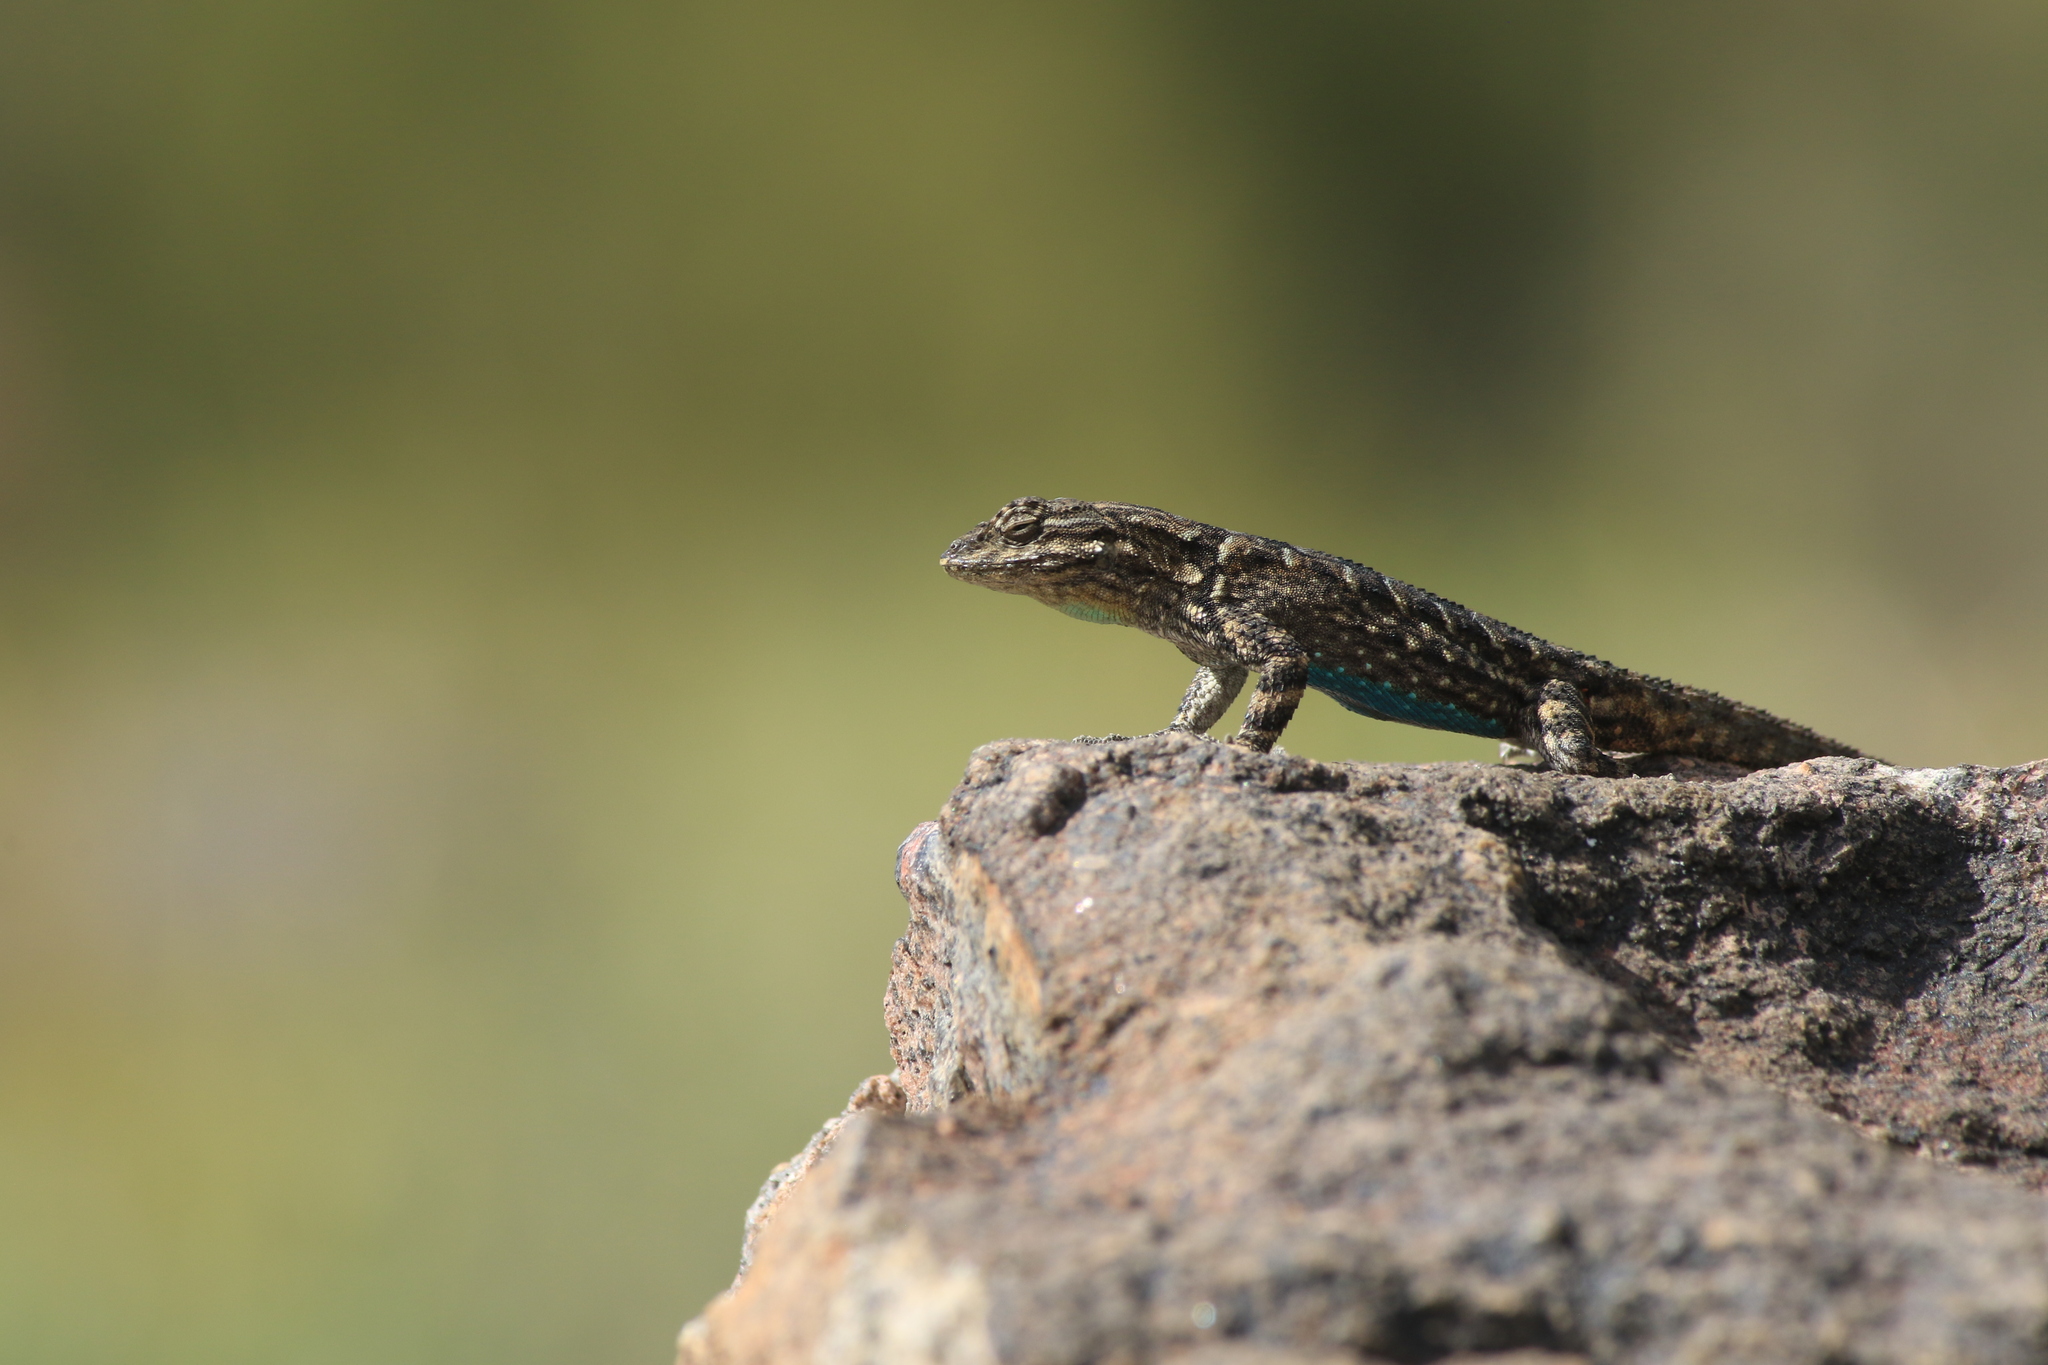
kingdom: Animalia
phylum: Chordata
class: Squamata
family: Phrynosomatidae
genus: Urosaurus
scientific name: Urosaurus ornatus
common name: Ornate tree lizard
